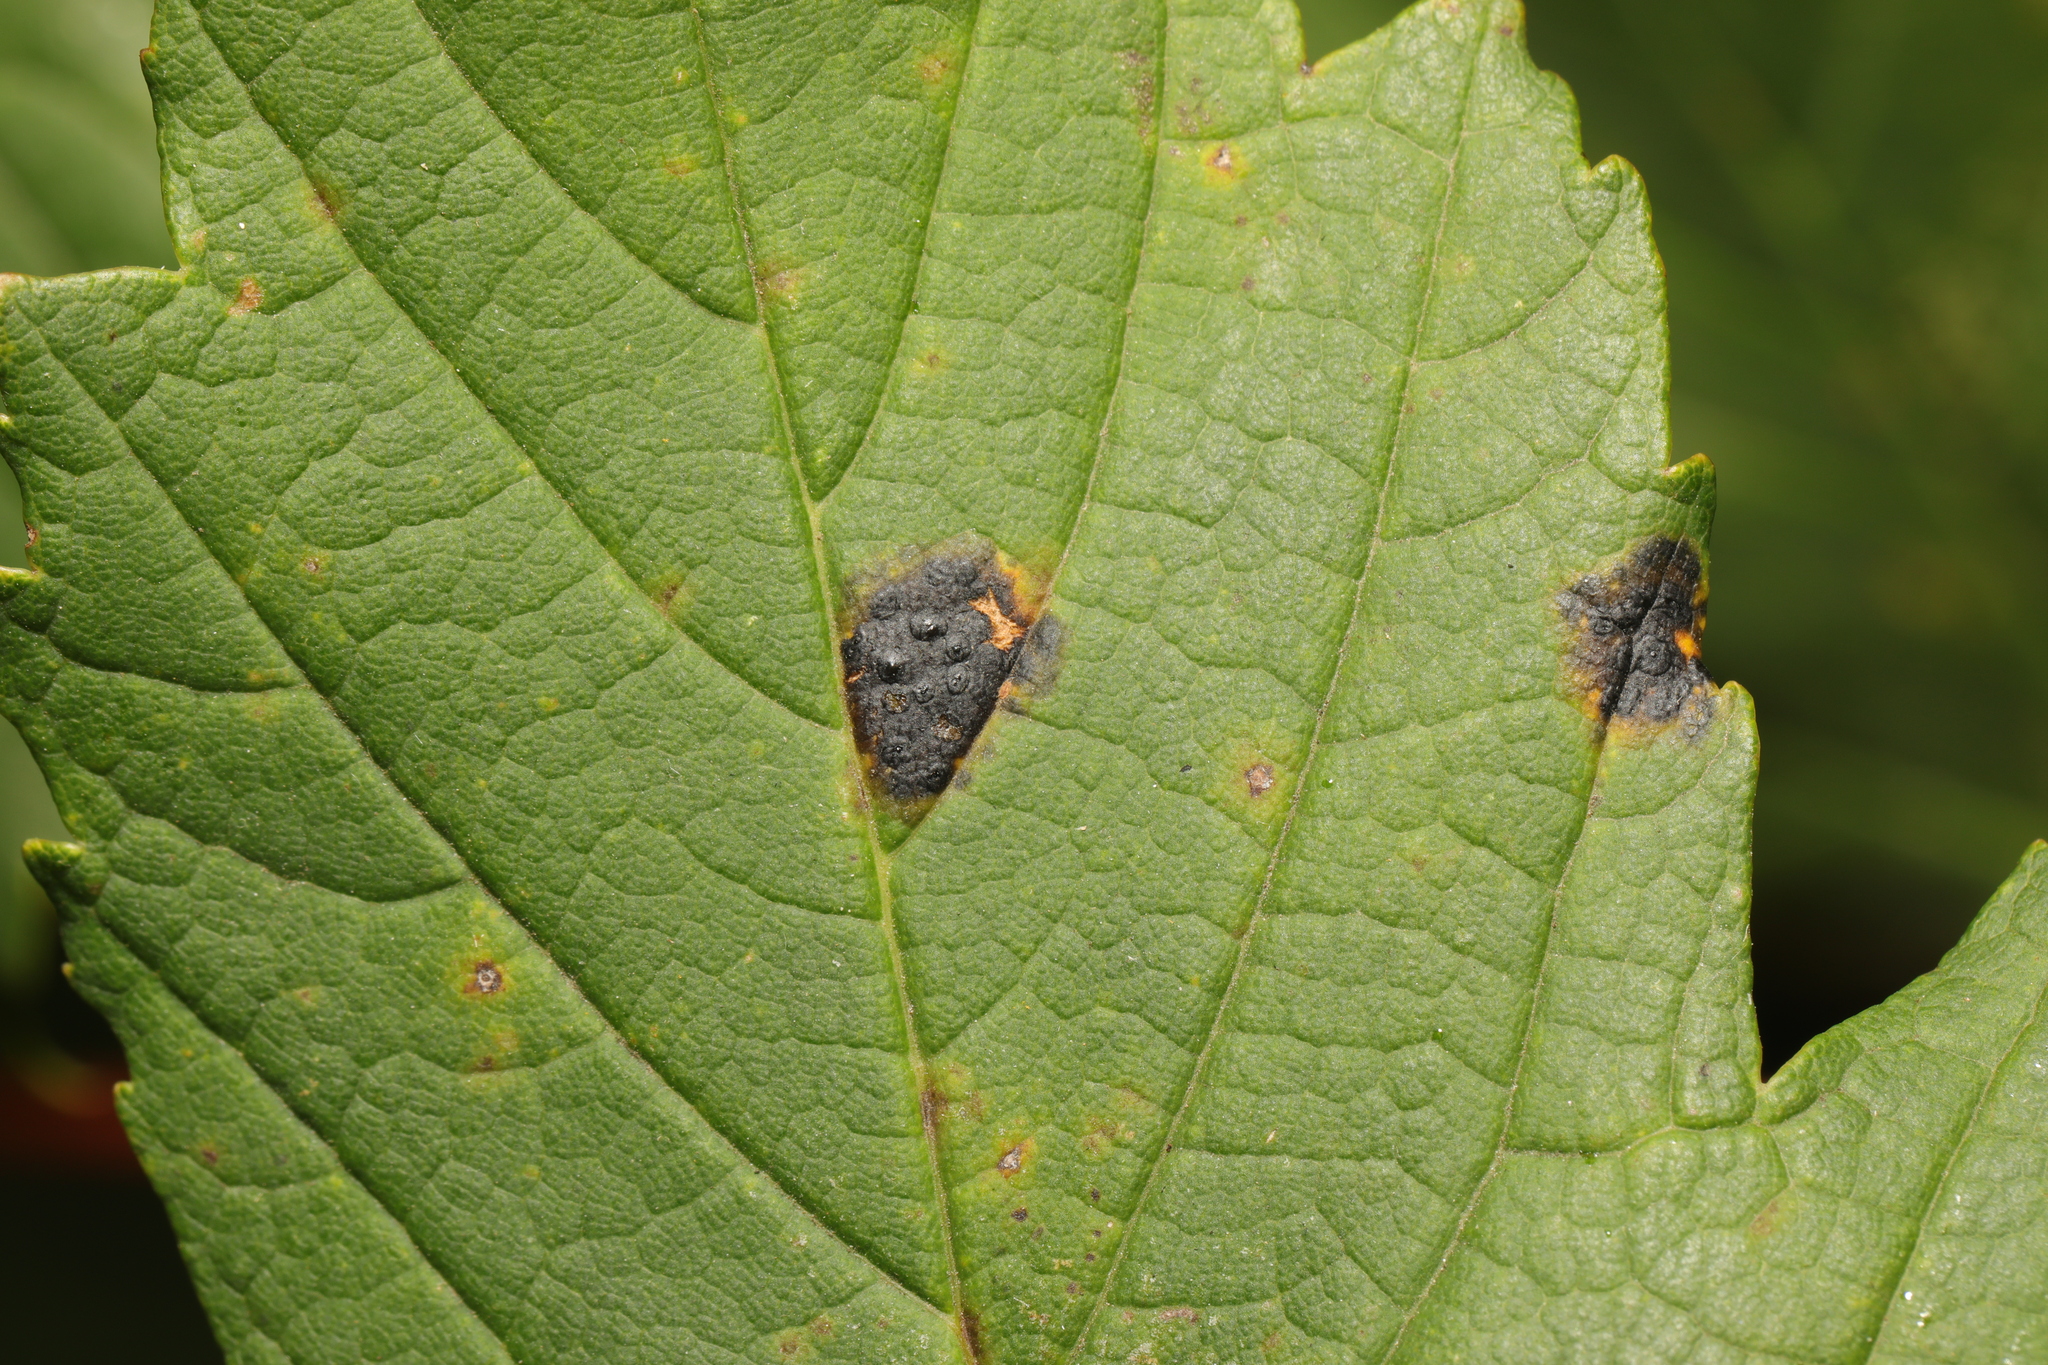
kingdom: Fungi
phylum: Ascomycota
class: Leotiomycetes
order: Rhytismatales
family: Rhytismataceae
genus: Rhytisma
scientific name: Rhytisma acerinum
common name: European tar spot
